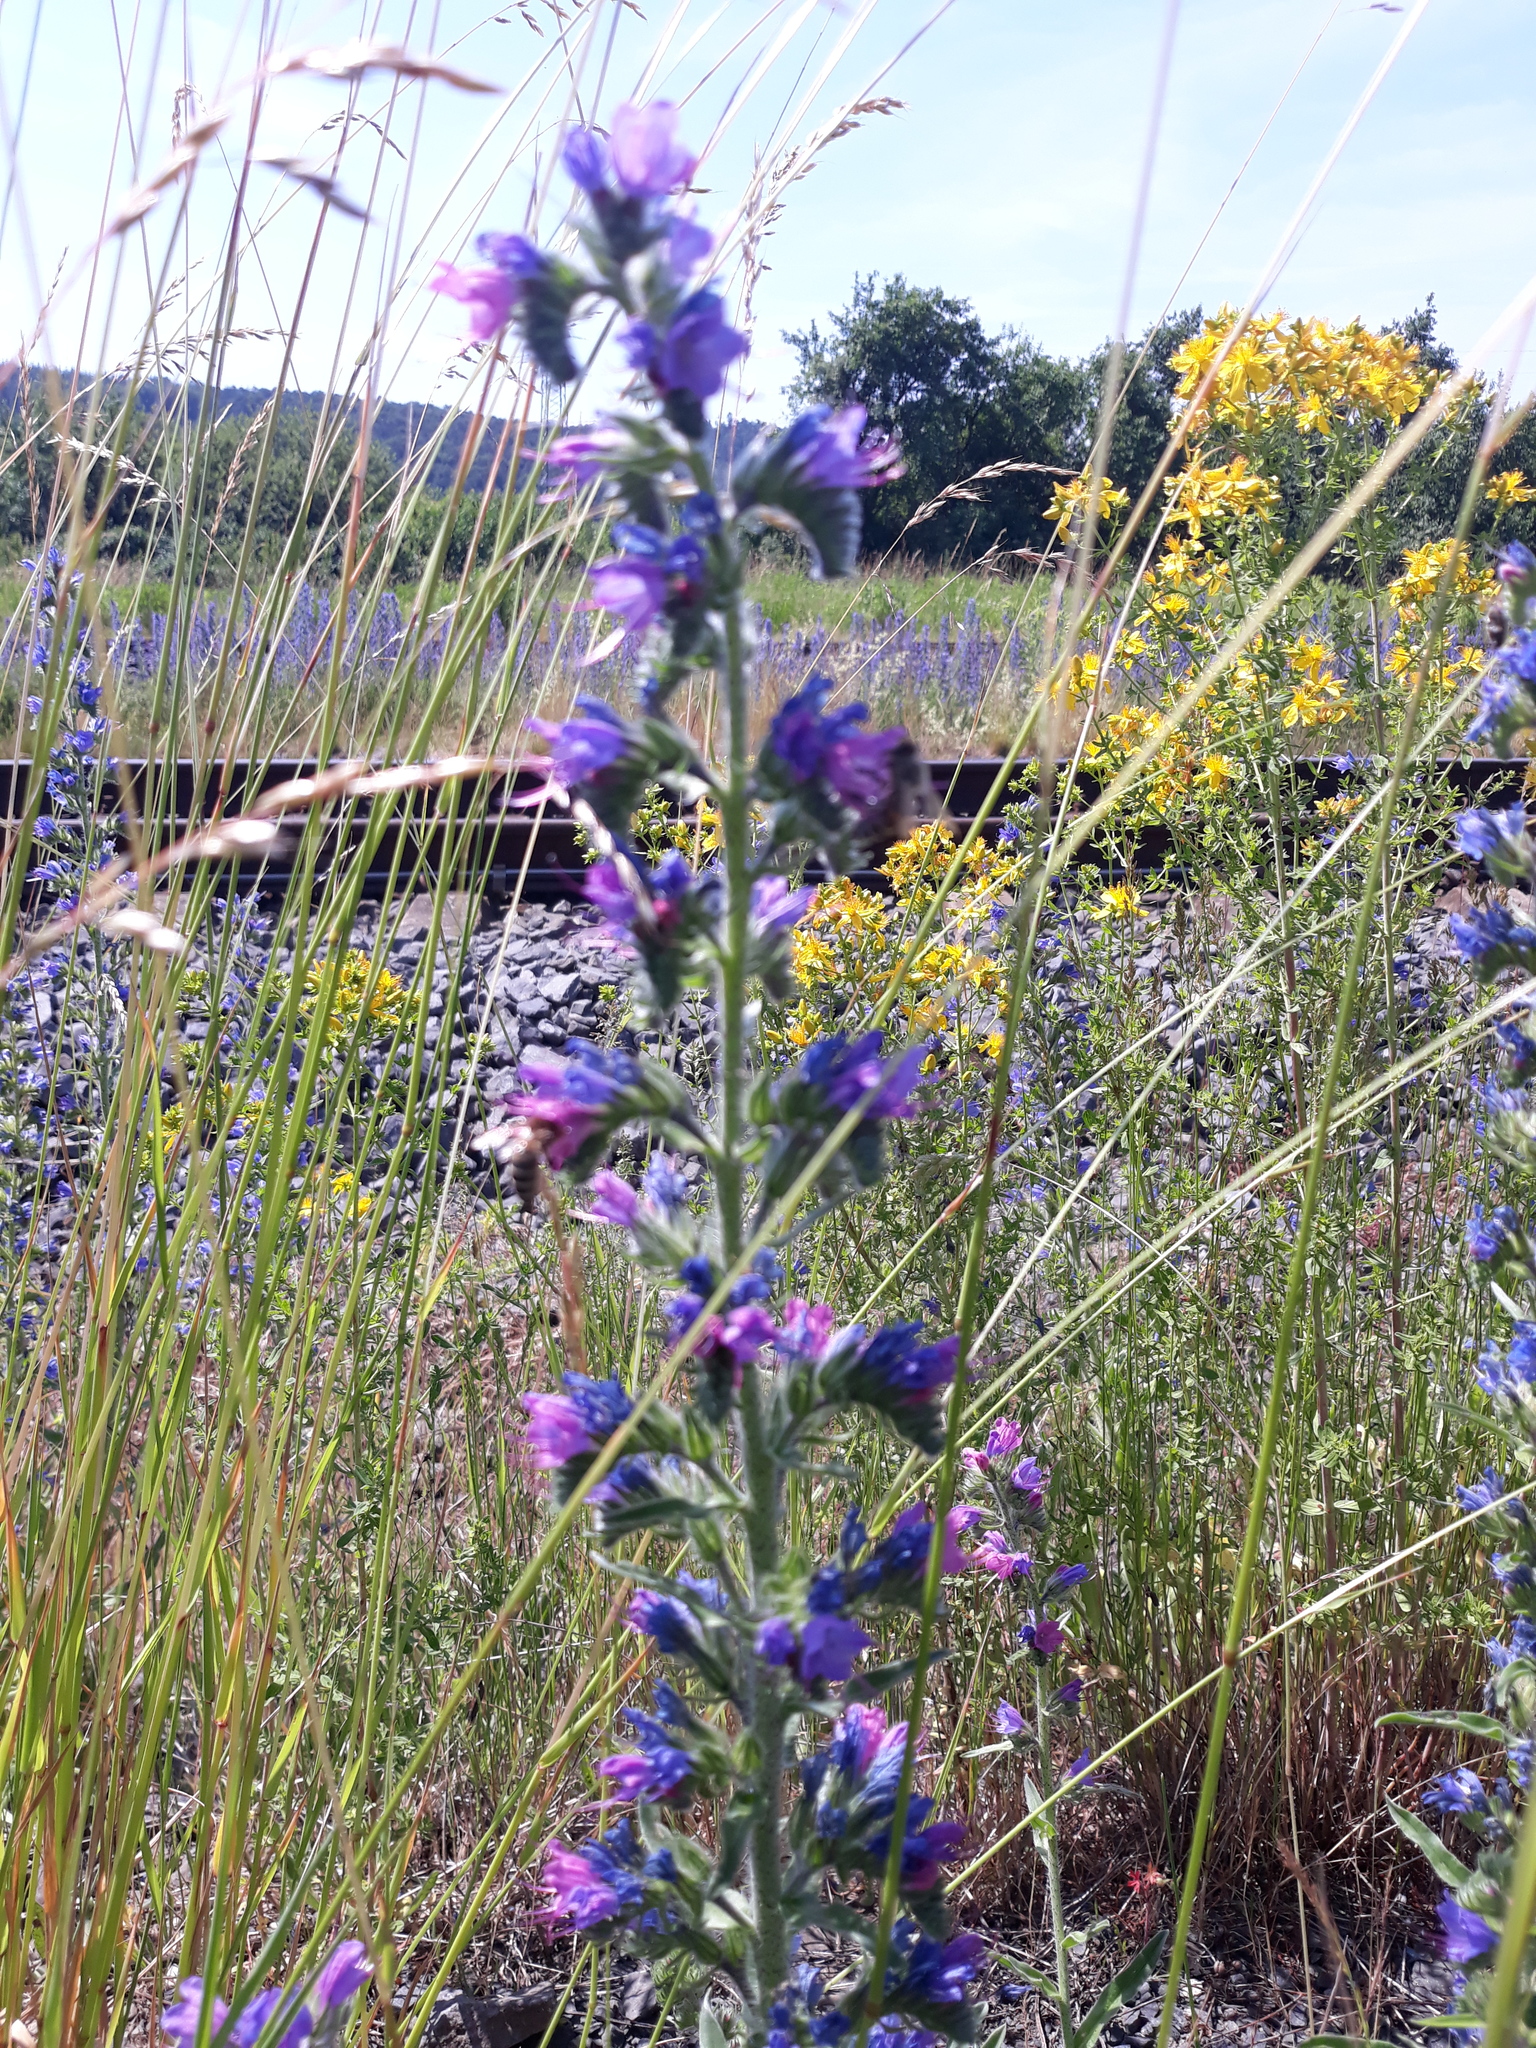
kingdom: Plantae
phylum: Tracheophyta
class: Magnoliopsida
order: Boraginales
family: Boraginaceae
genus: Echium
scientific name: Echium vulgare
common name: Common viper's bugloss
